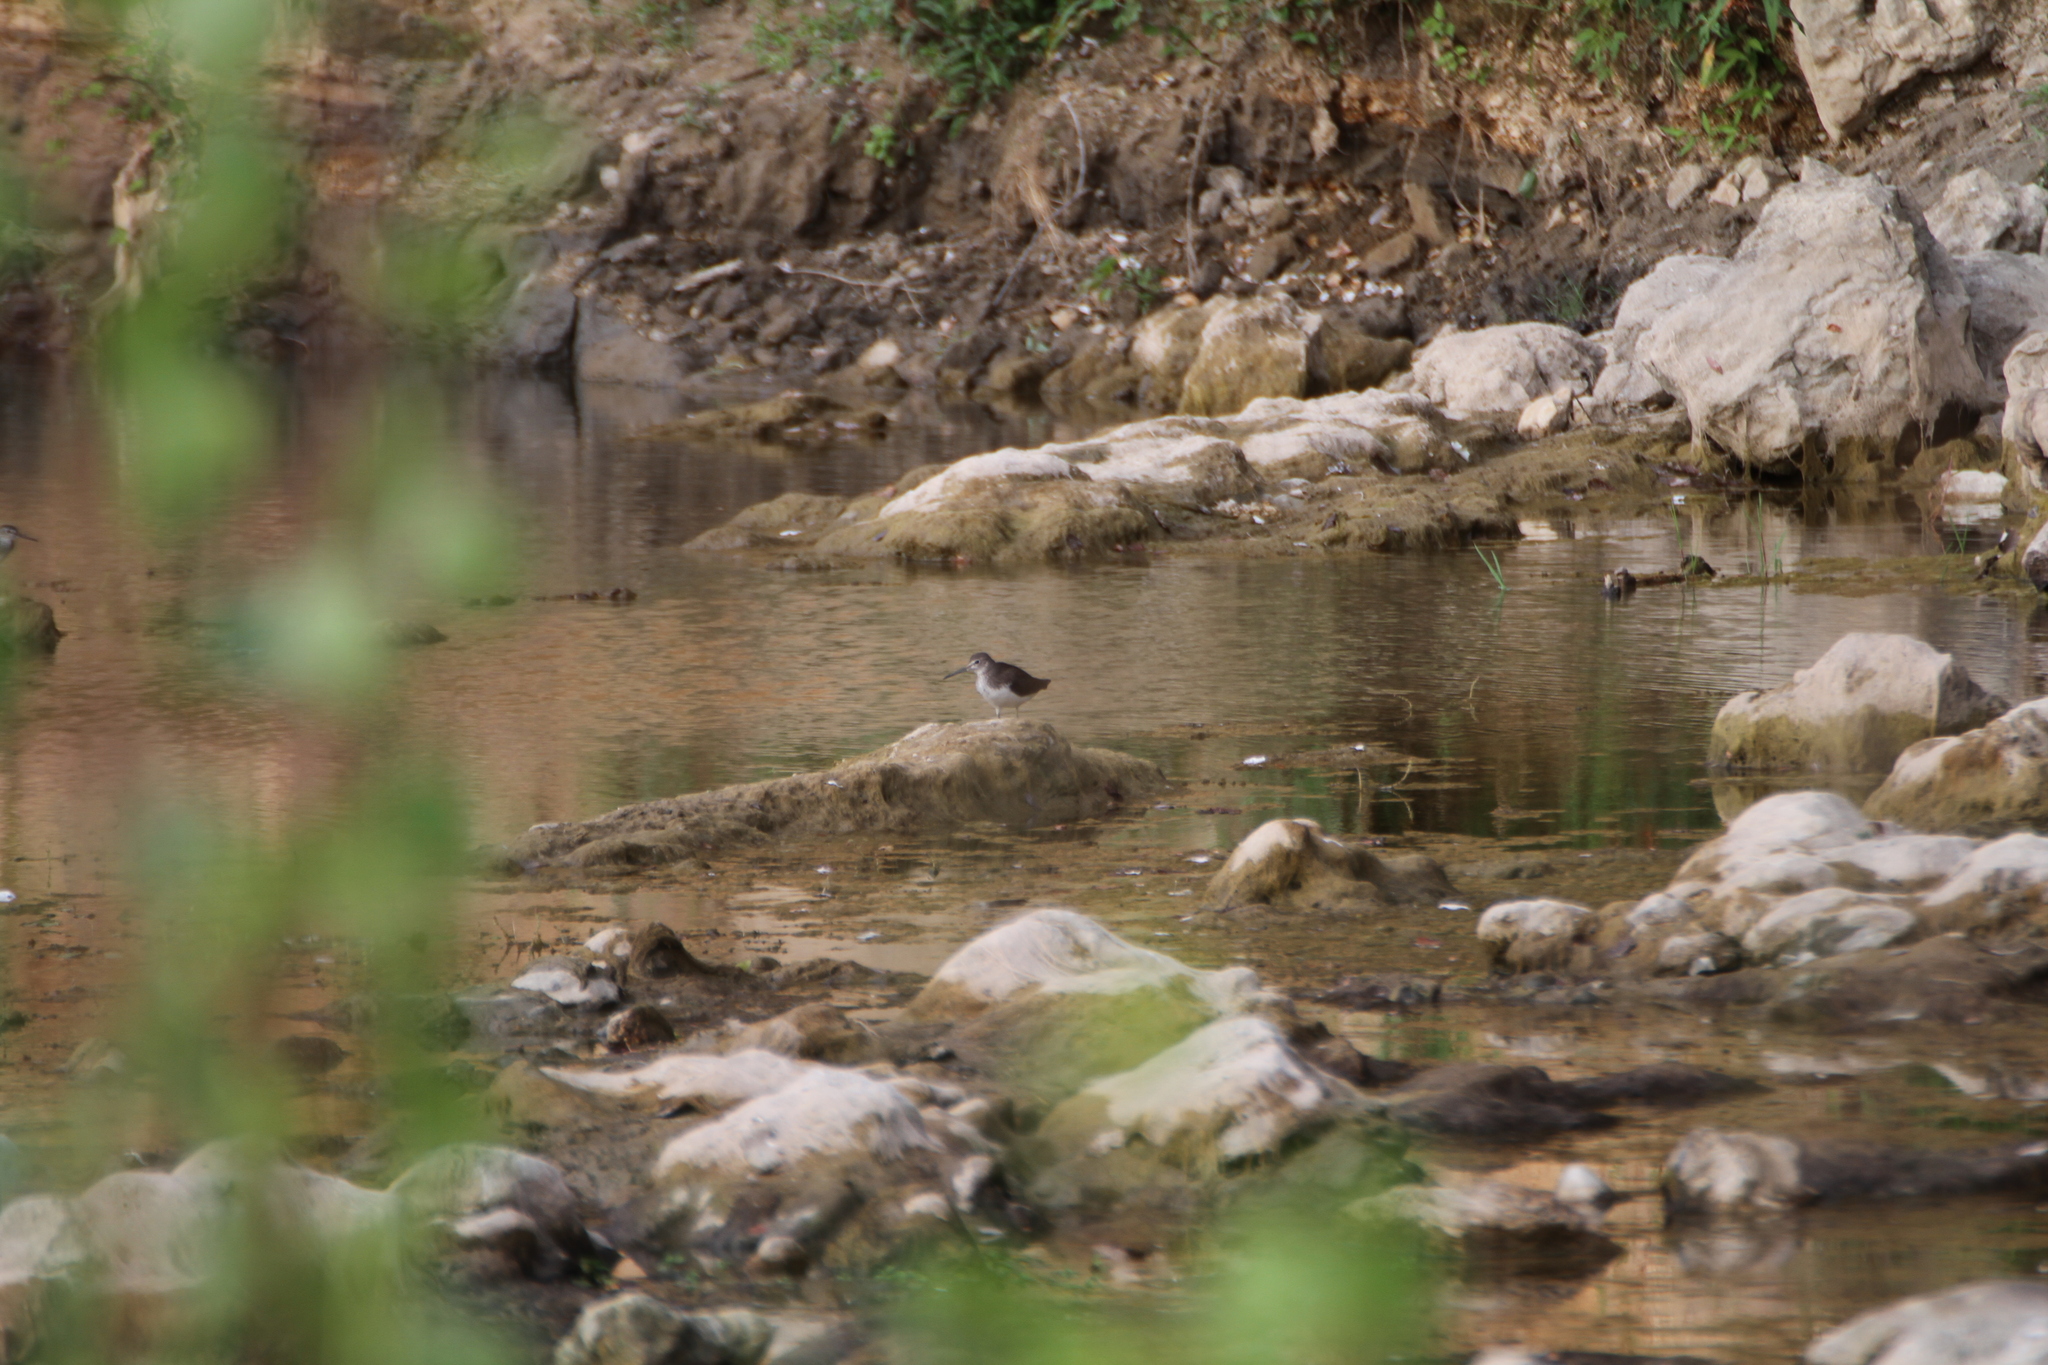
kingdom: Animalia
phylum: Chordata
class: Aves
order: Charadriiformes
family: Scolopacidae
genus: Tringa
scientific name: Tringa ochropus
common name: Green sandpiper
